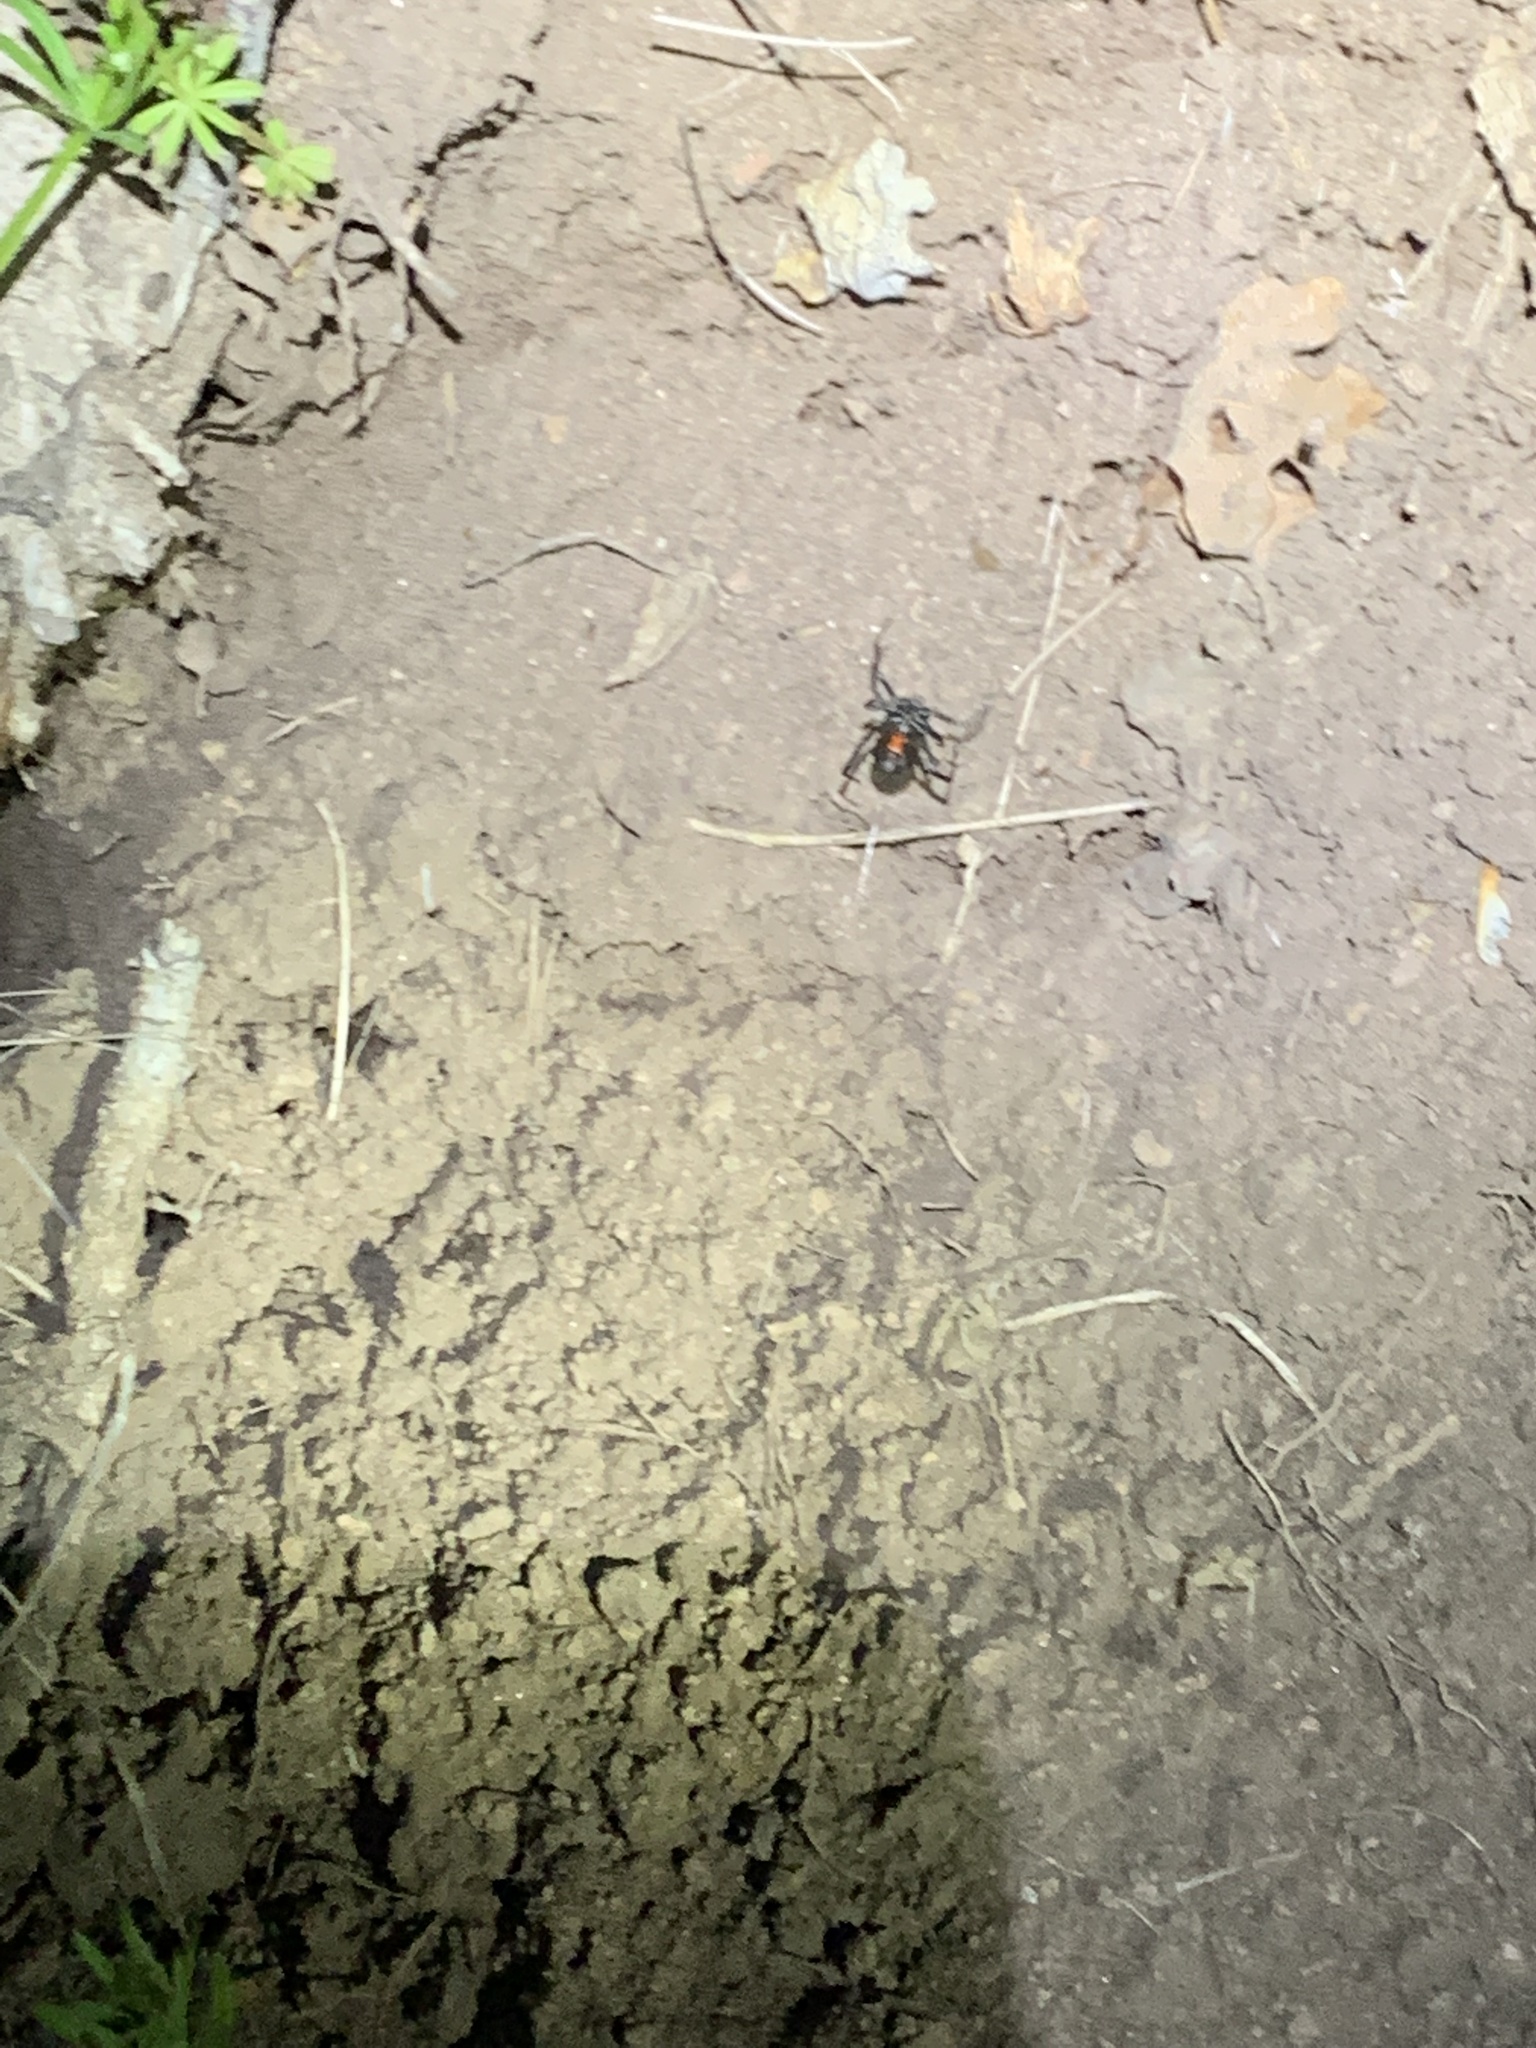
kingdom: Animalia
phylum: Arthropoda
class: Arachnida
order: Araneae
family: Theridiidae
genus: Latrodectus
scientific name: Latrodectus hesperus
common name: Western black widow
